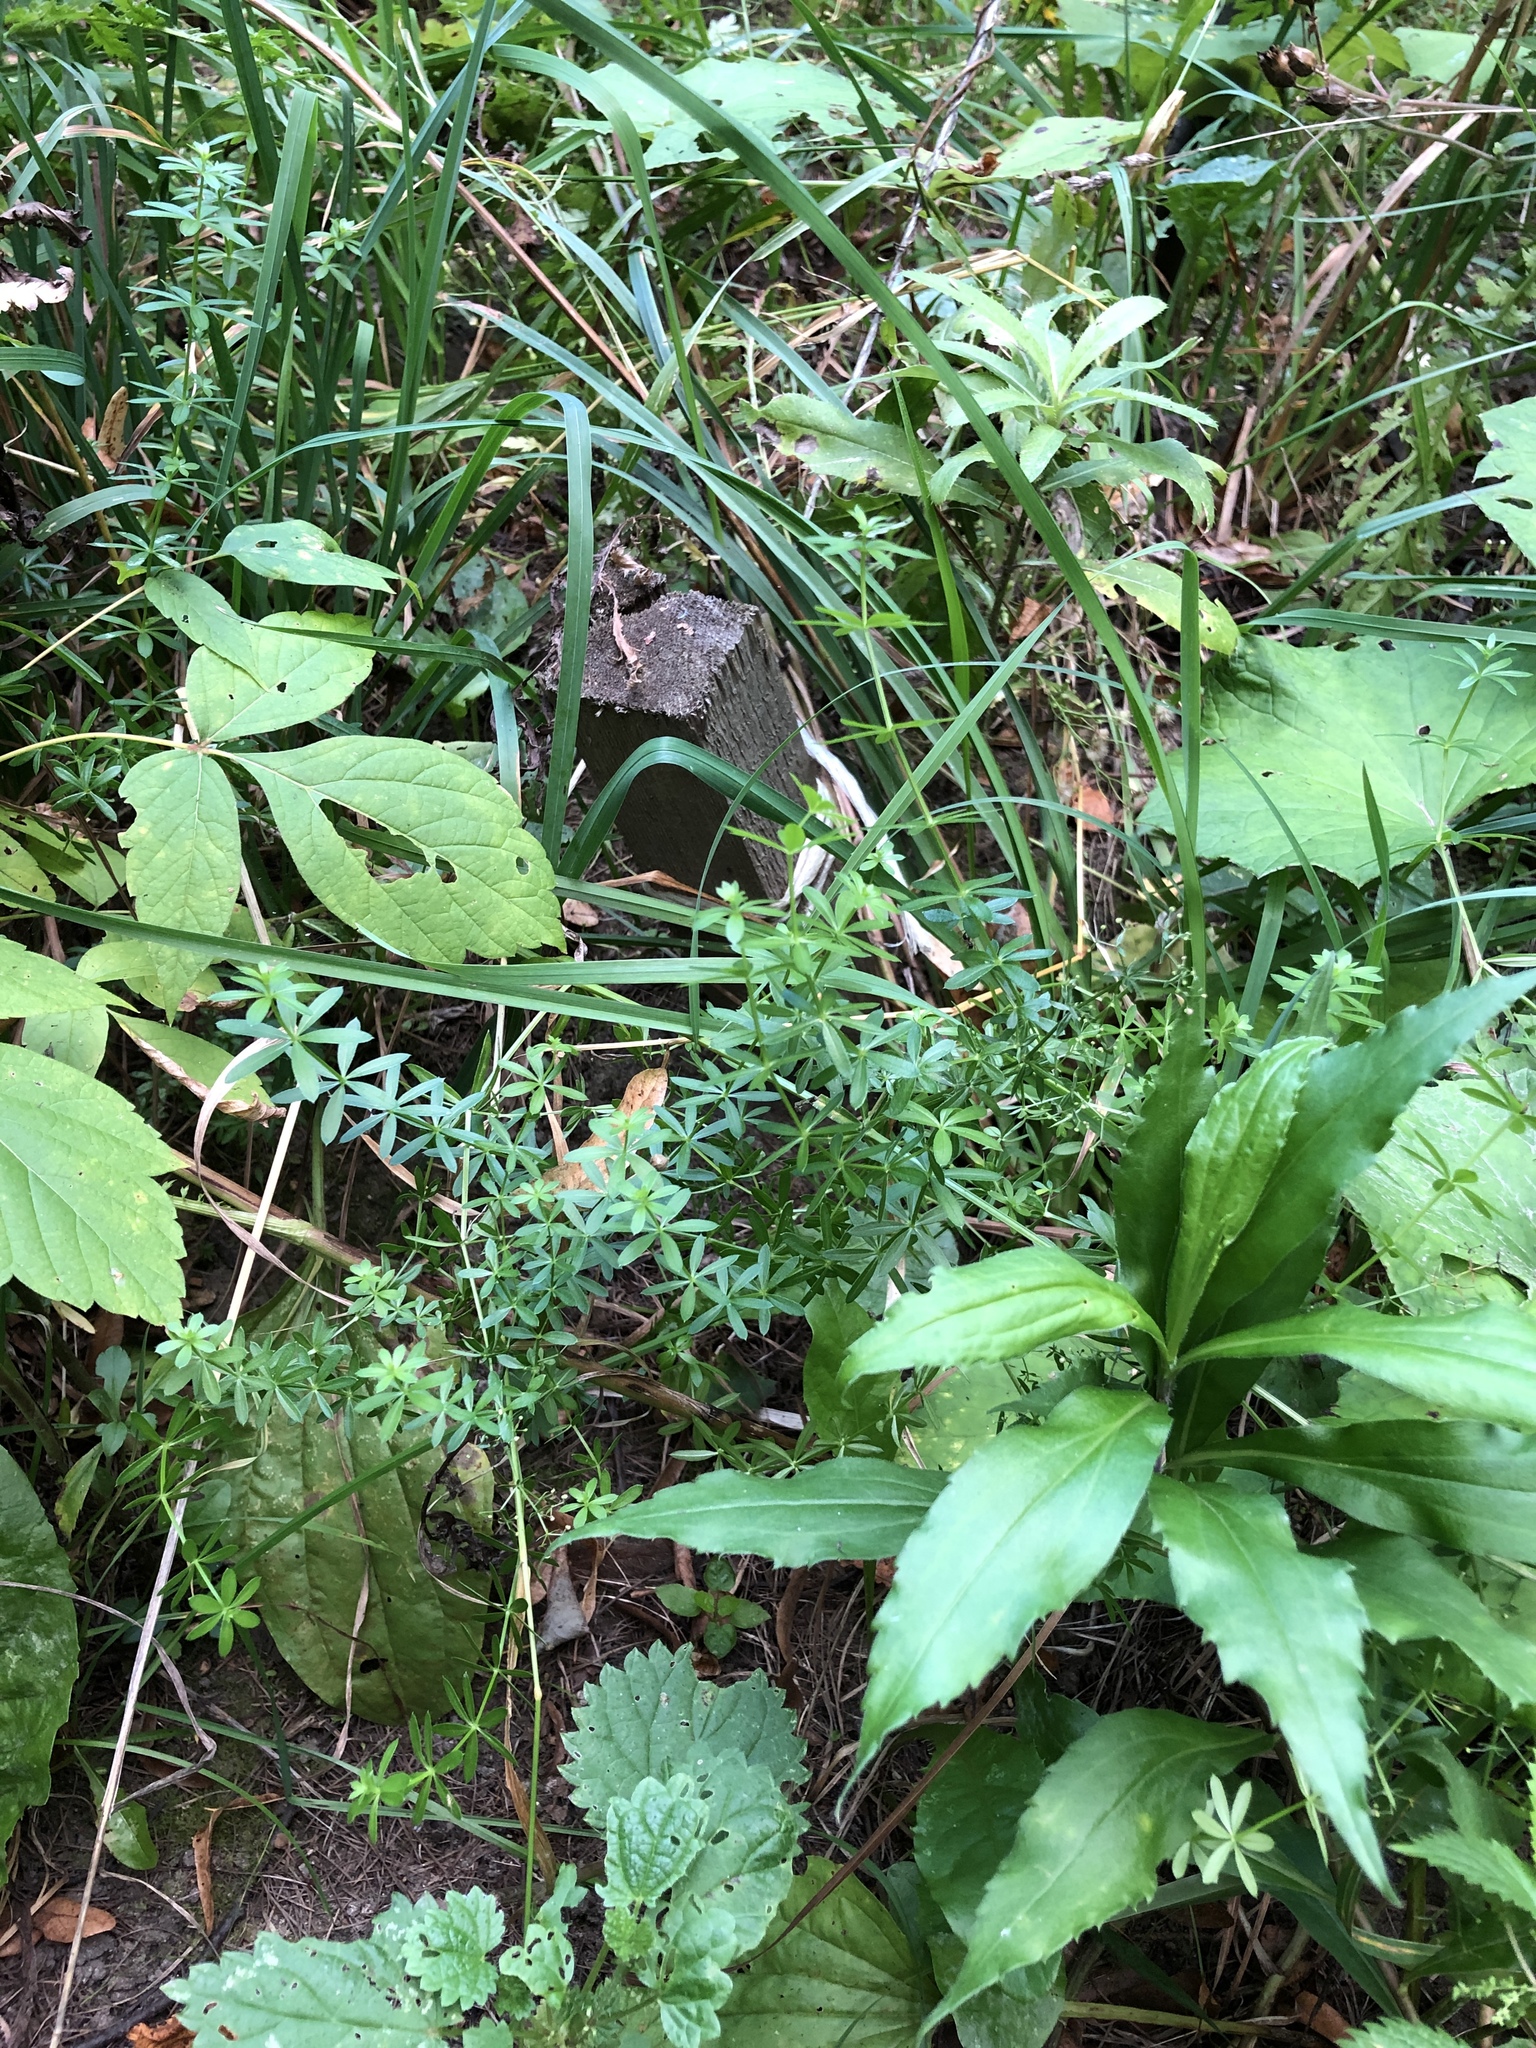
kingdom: Plantae
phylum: Tracheophyta
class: Magnoliopsida
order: Gentianales
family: Rubiaceae
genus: Galium
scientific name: Galium mollugo
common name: Hedge bedstraw
